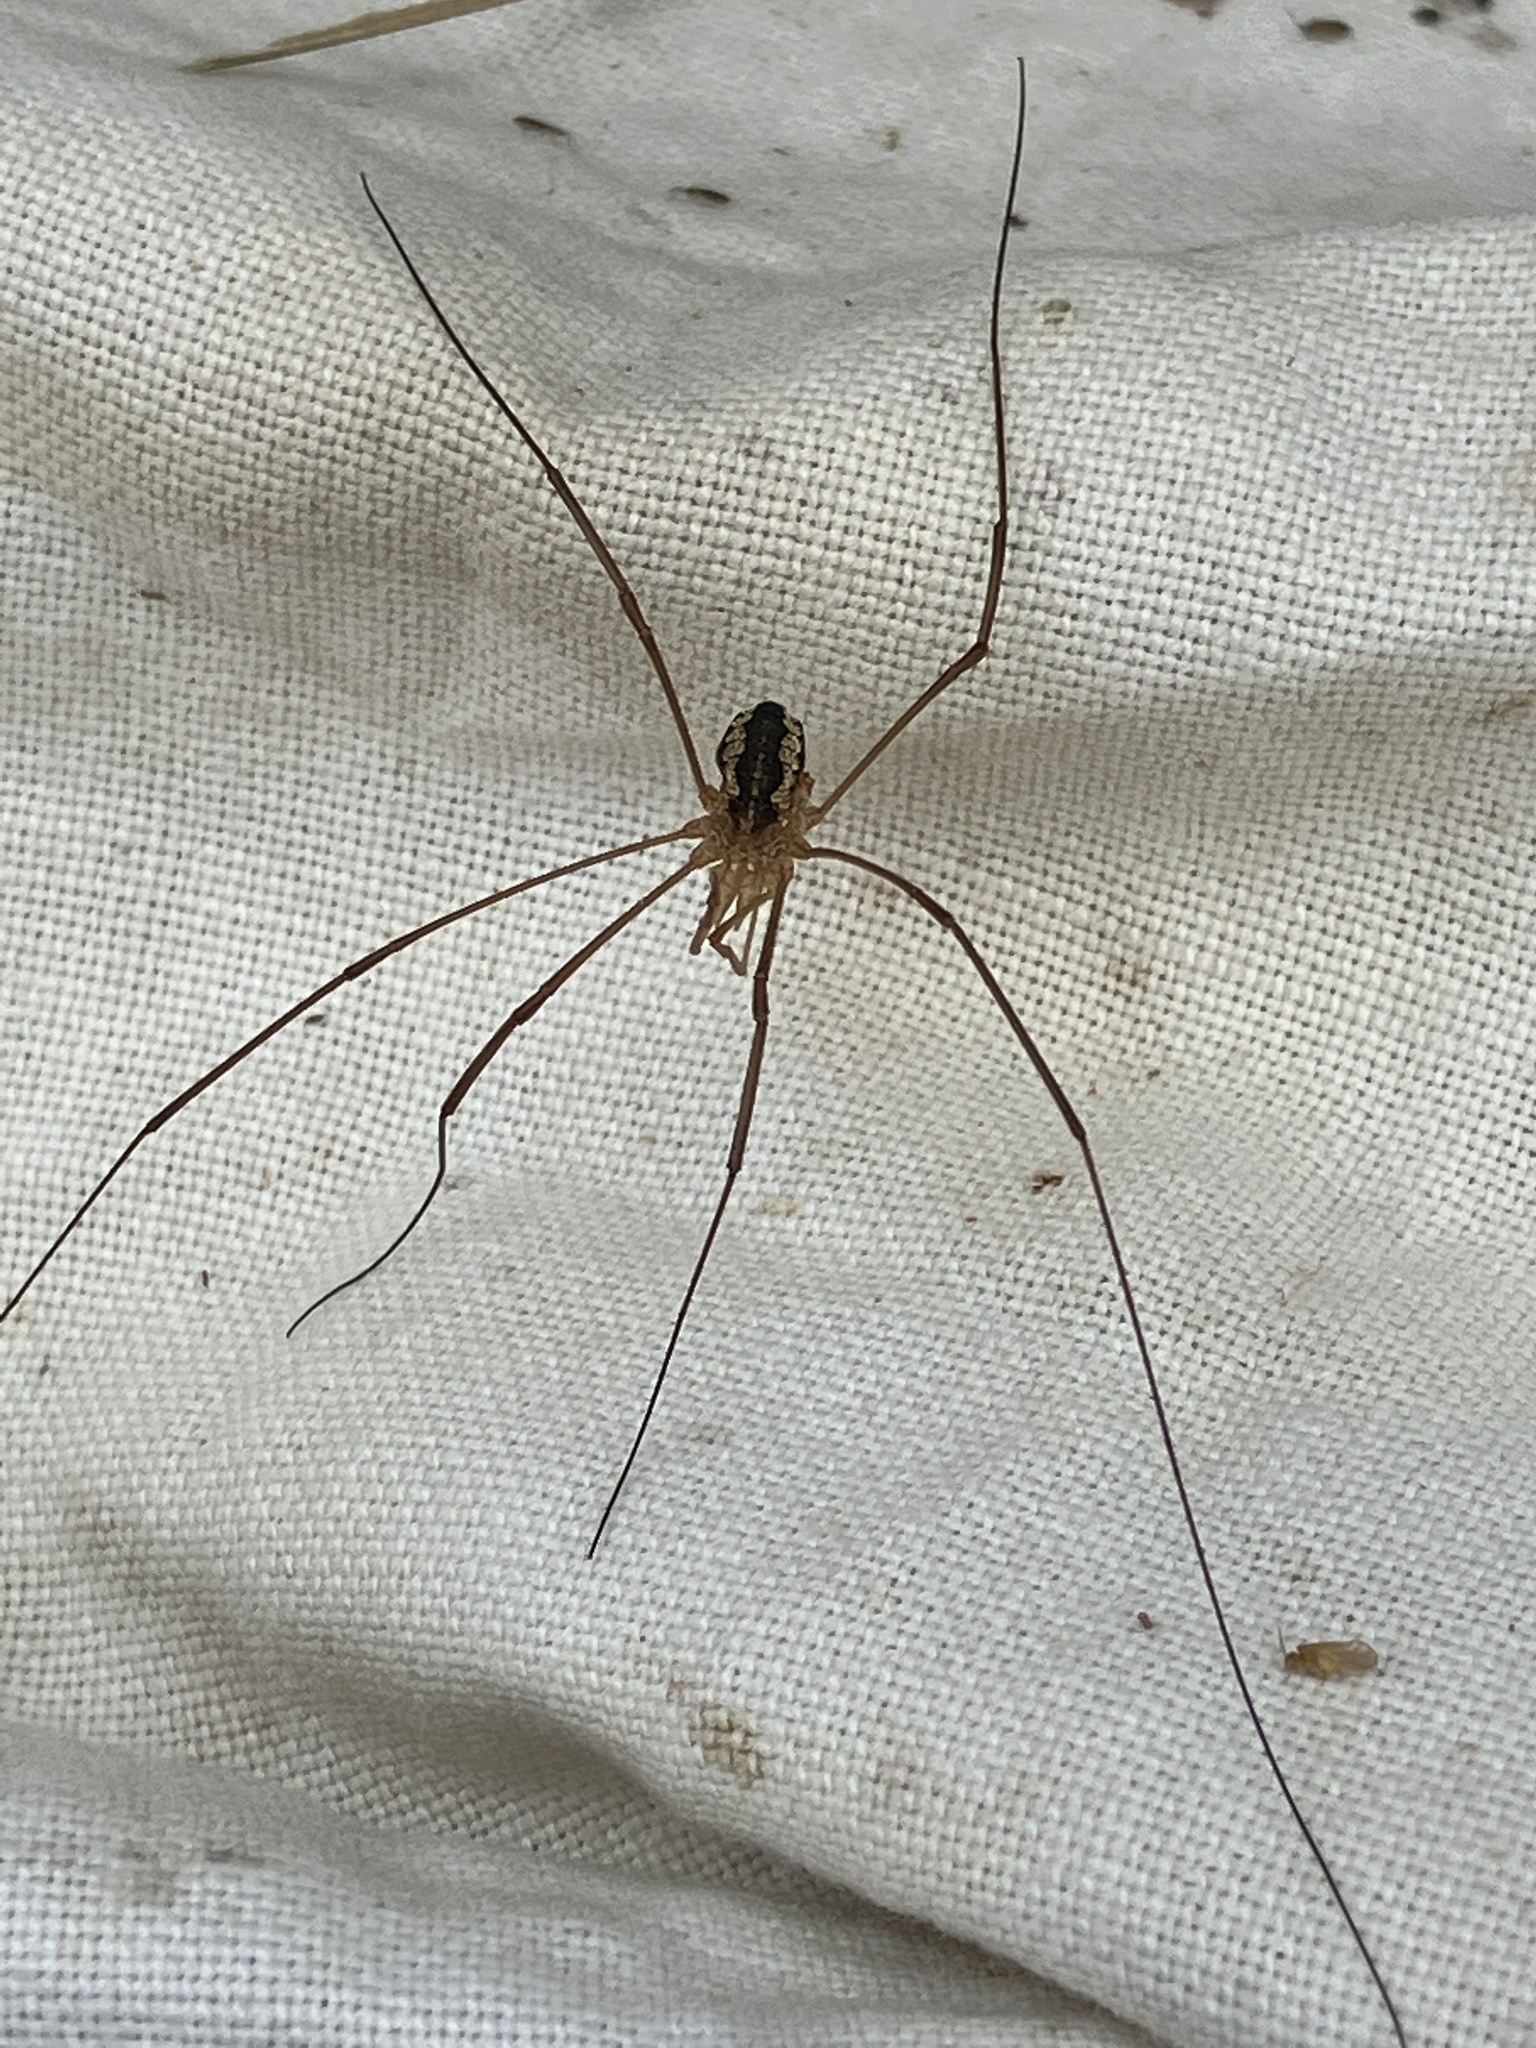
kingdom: Animalia
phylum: Arthropoda
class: Arachnida
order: Opiliones
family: Phalangiidae
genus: Phalangium
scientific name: Phalangium opilio
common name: Daddy longleg
